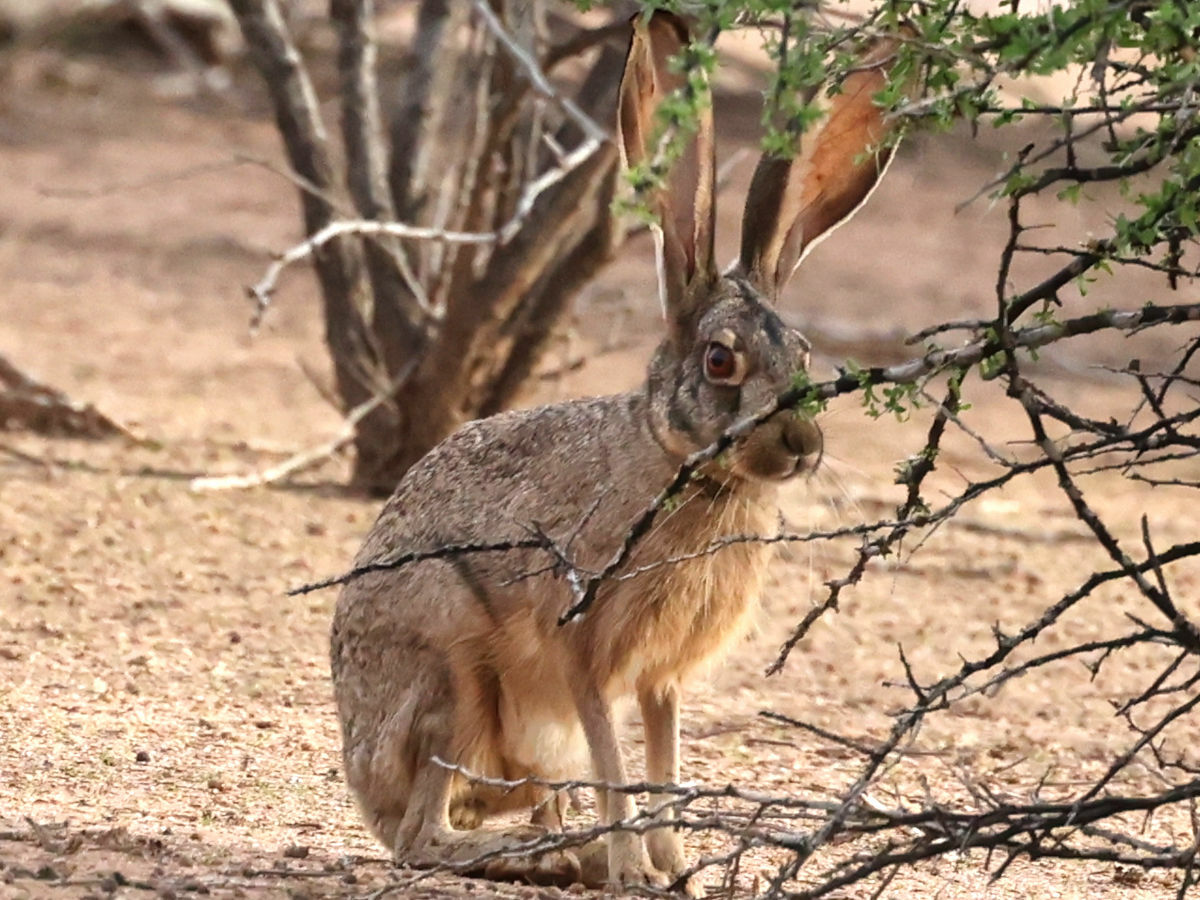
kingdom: Animalia
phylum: Chordata
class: Mammalia
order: Lagomorpha
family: Leporidae
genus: Lepus
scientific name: Lepus californicus
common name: Black-tailed jackrabbit
